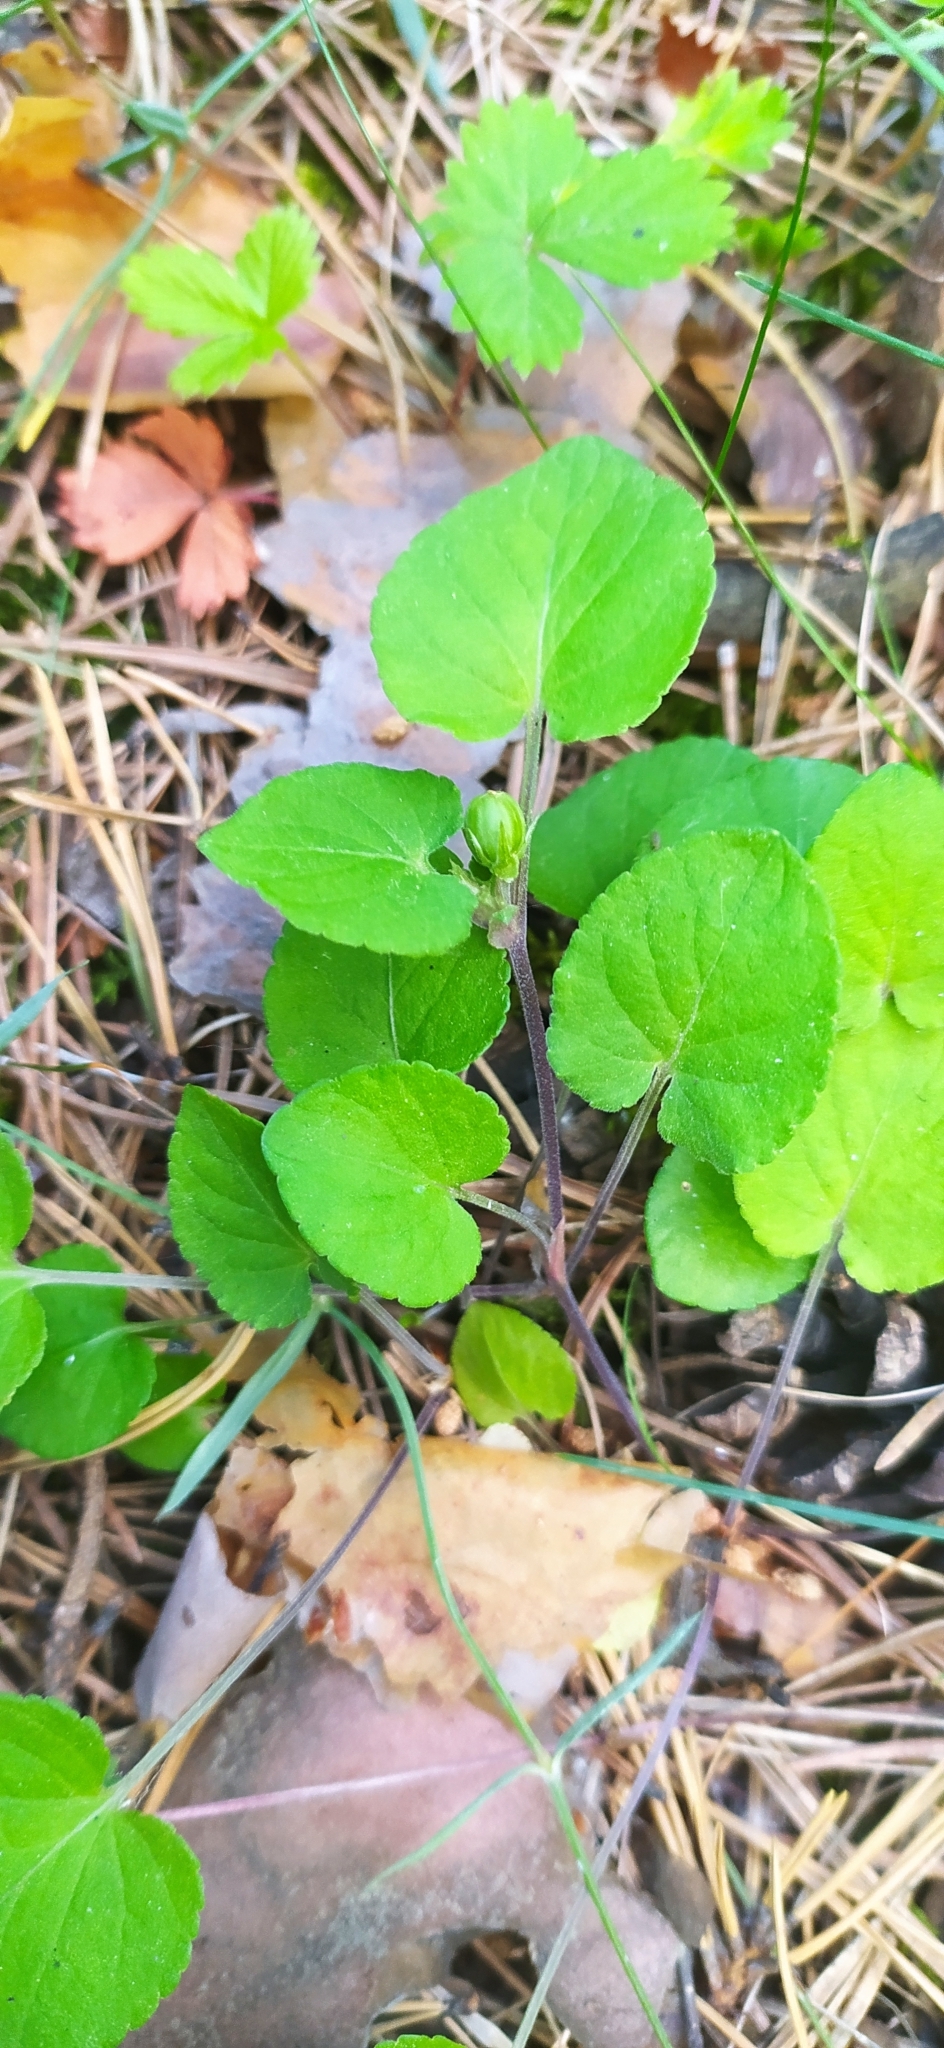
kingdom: Plantae
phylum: Tracheophyta
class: Magnoliopsida
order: Malpighiales
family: Violaceae
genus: Viola
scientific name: Viola rupestris
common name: Teesdale violet
